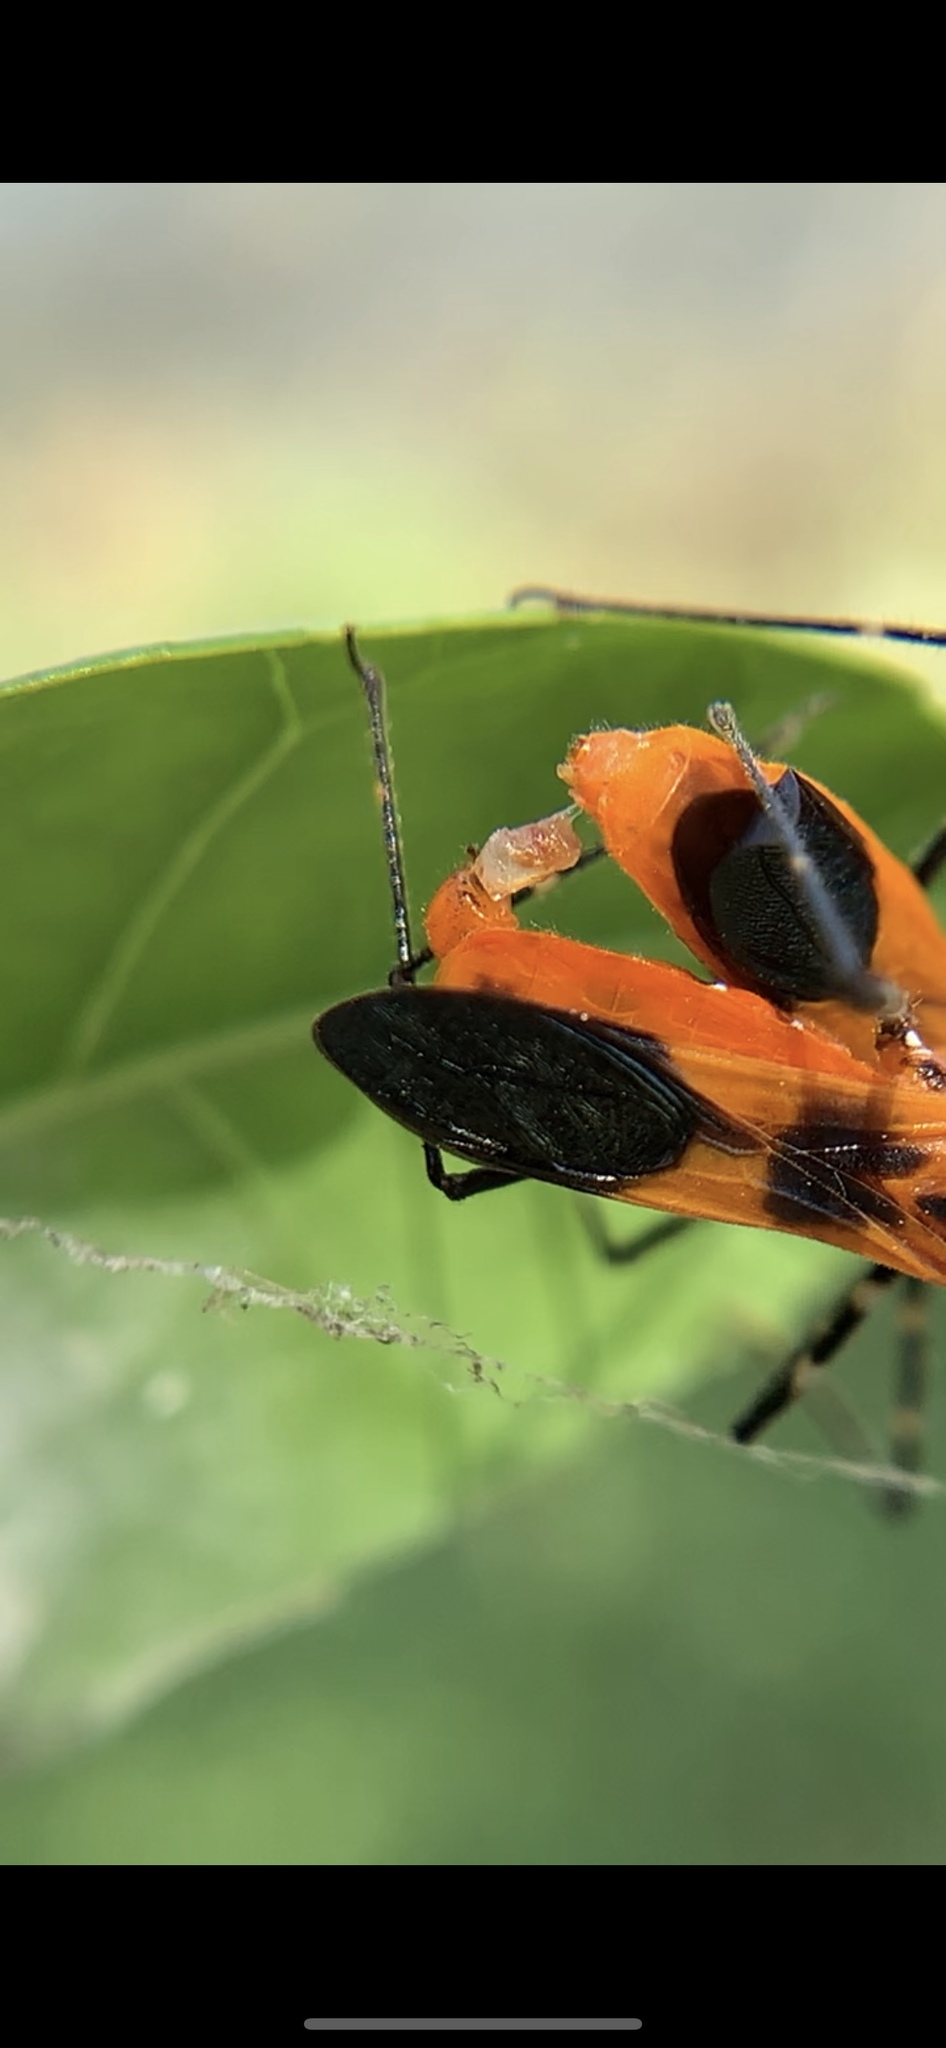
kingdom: Animalia
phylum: Arthropoda
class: Insecta
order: Hemiptera
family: Reduviidae
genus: Zelus
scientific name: Zelus longipes
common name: Milkweed assassin bug
